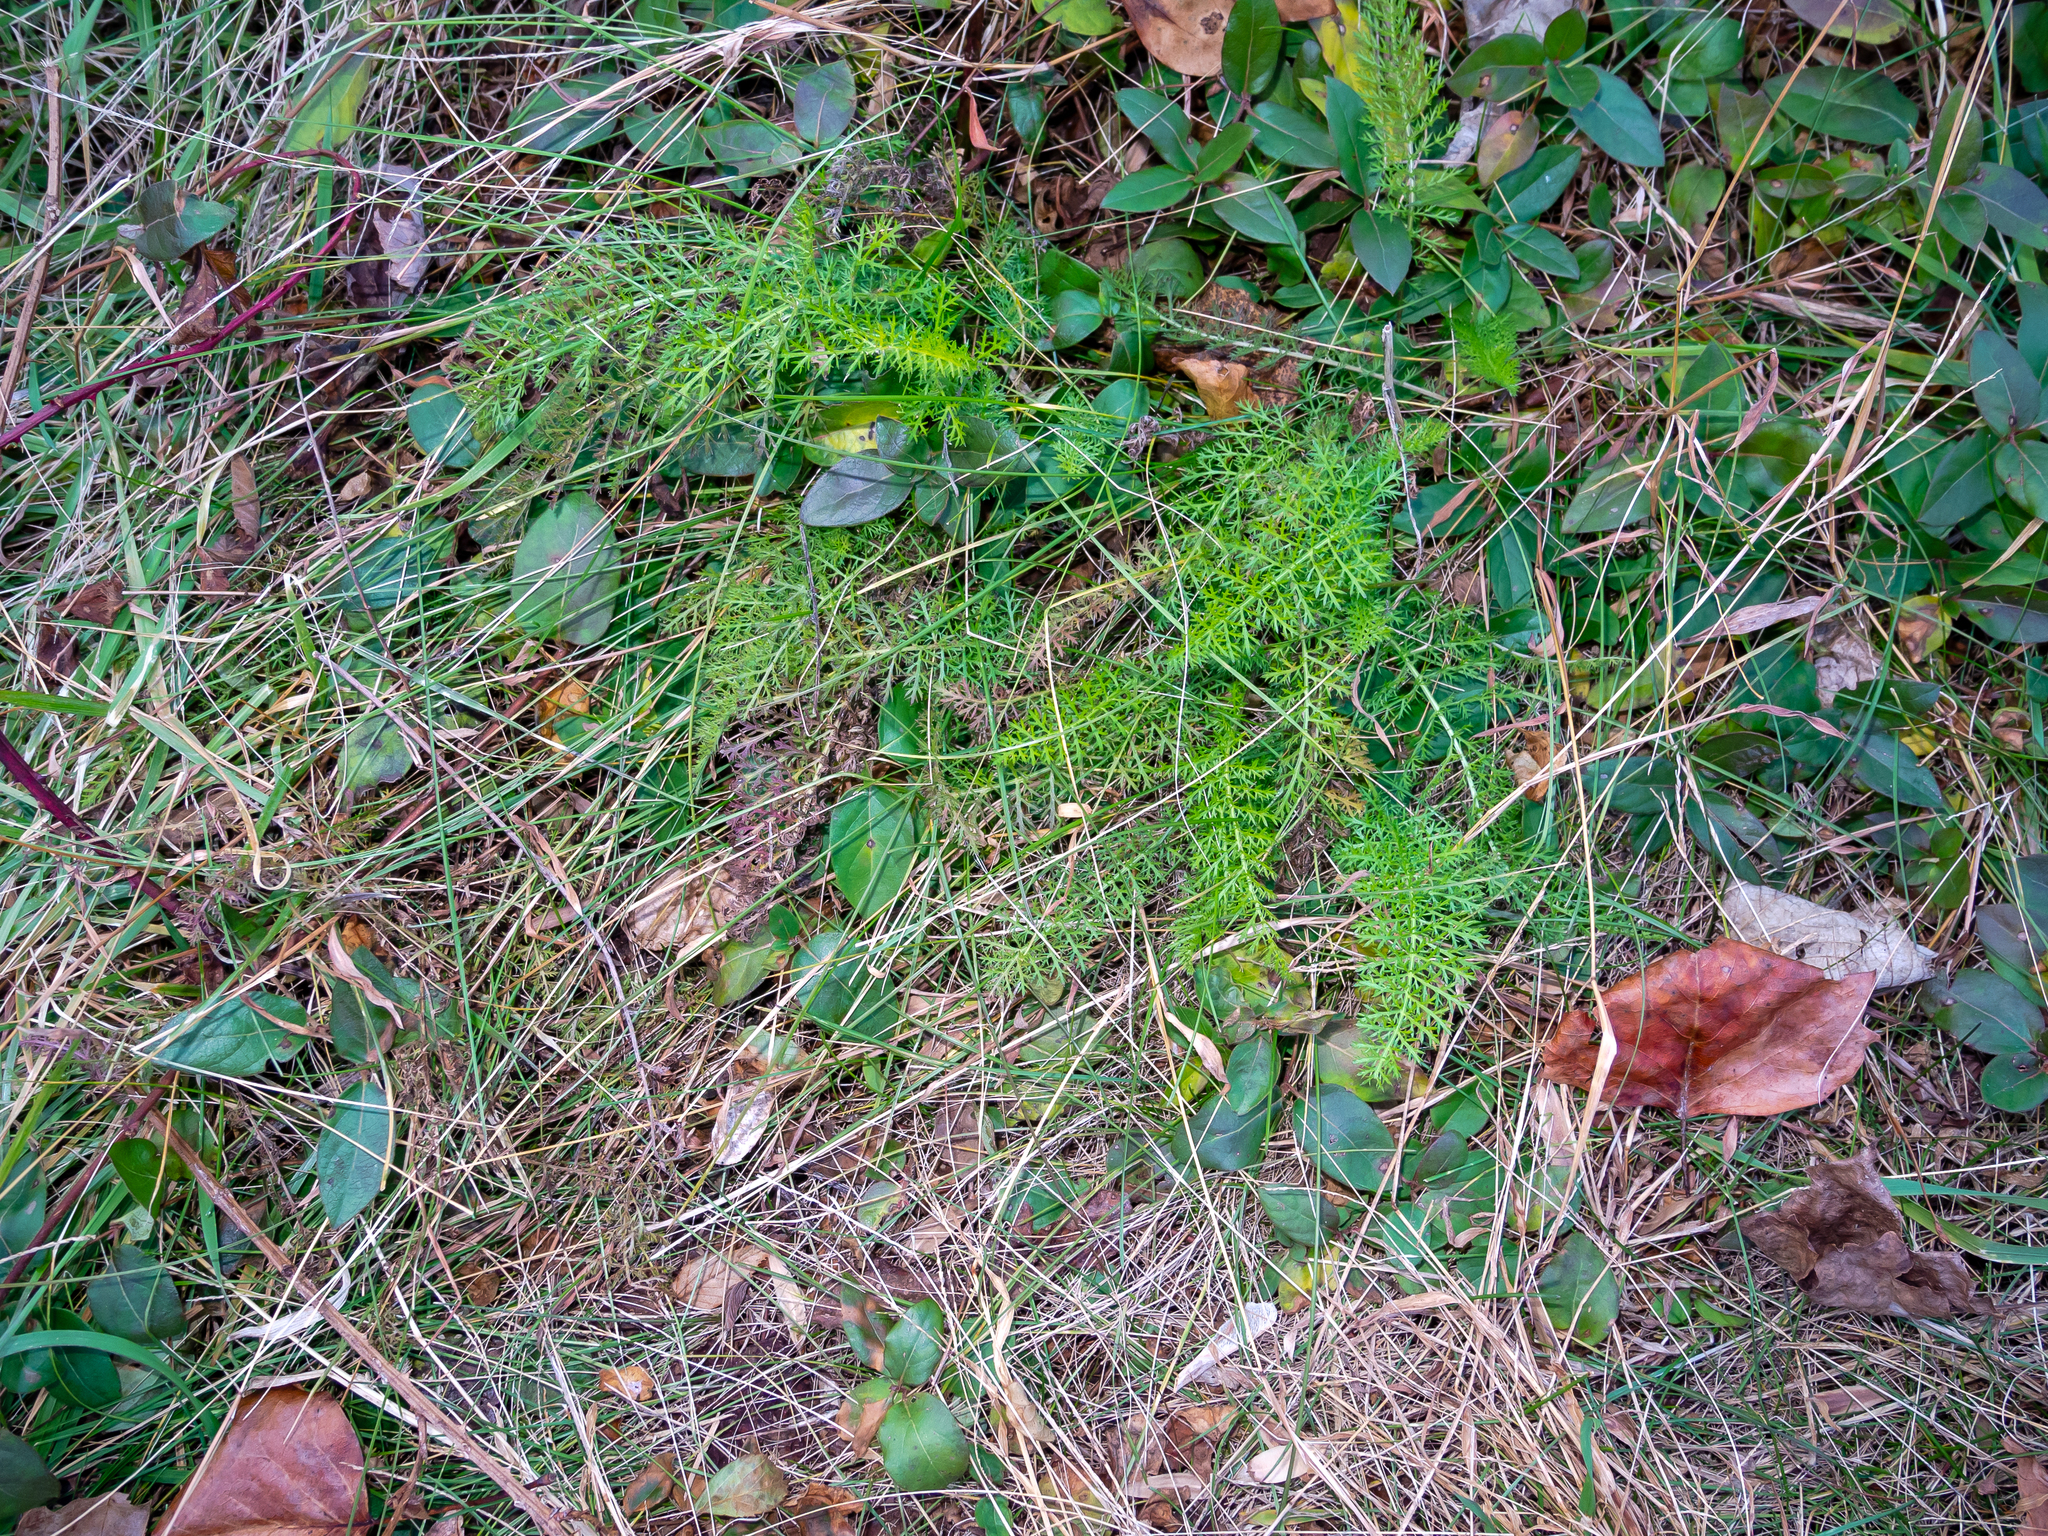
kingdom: Plantae
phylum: Tracheophyta
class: Magnoliopsida
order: Asterales
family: Asteraceae
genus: Achillea
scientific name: Achillea millefolium
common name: Yarrow
